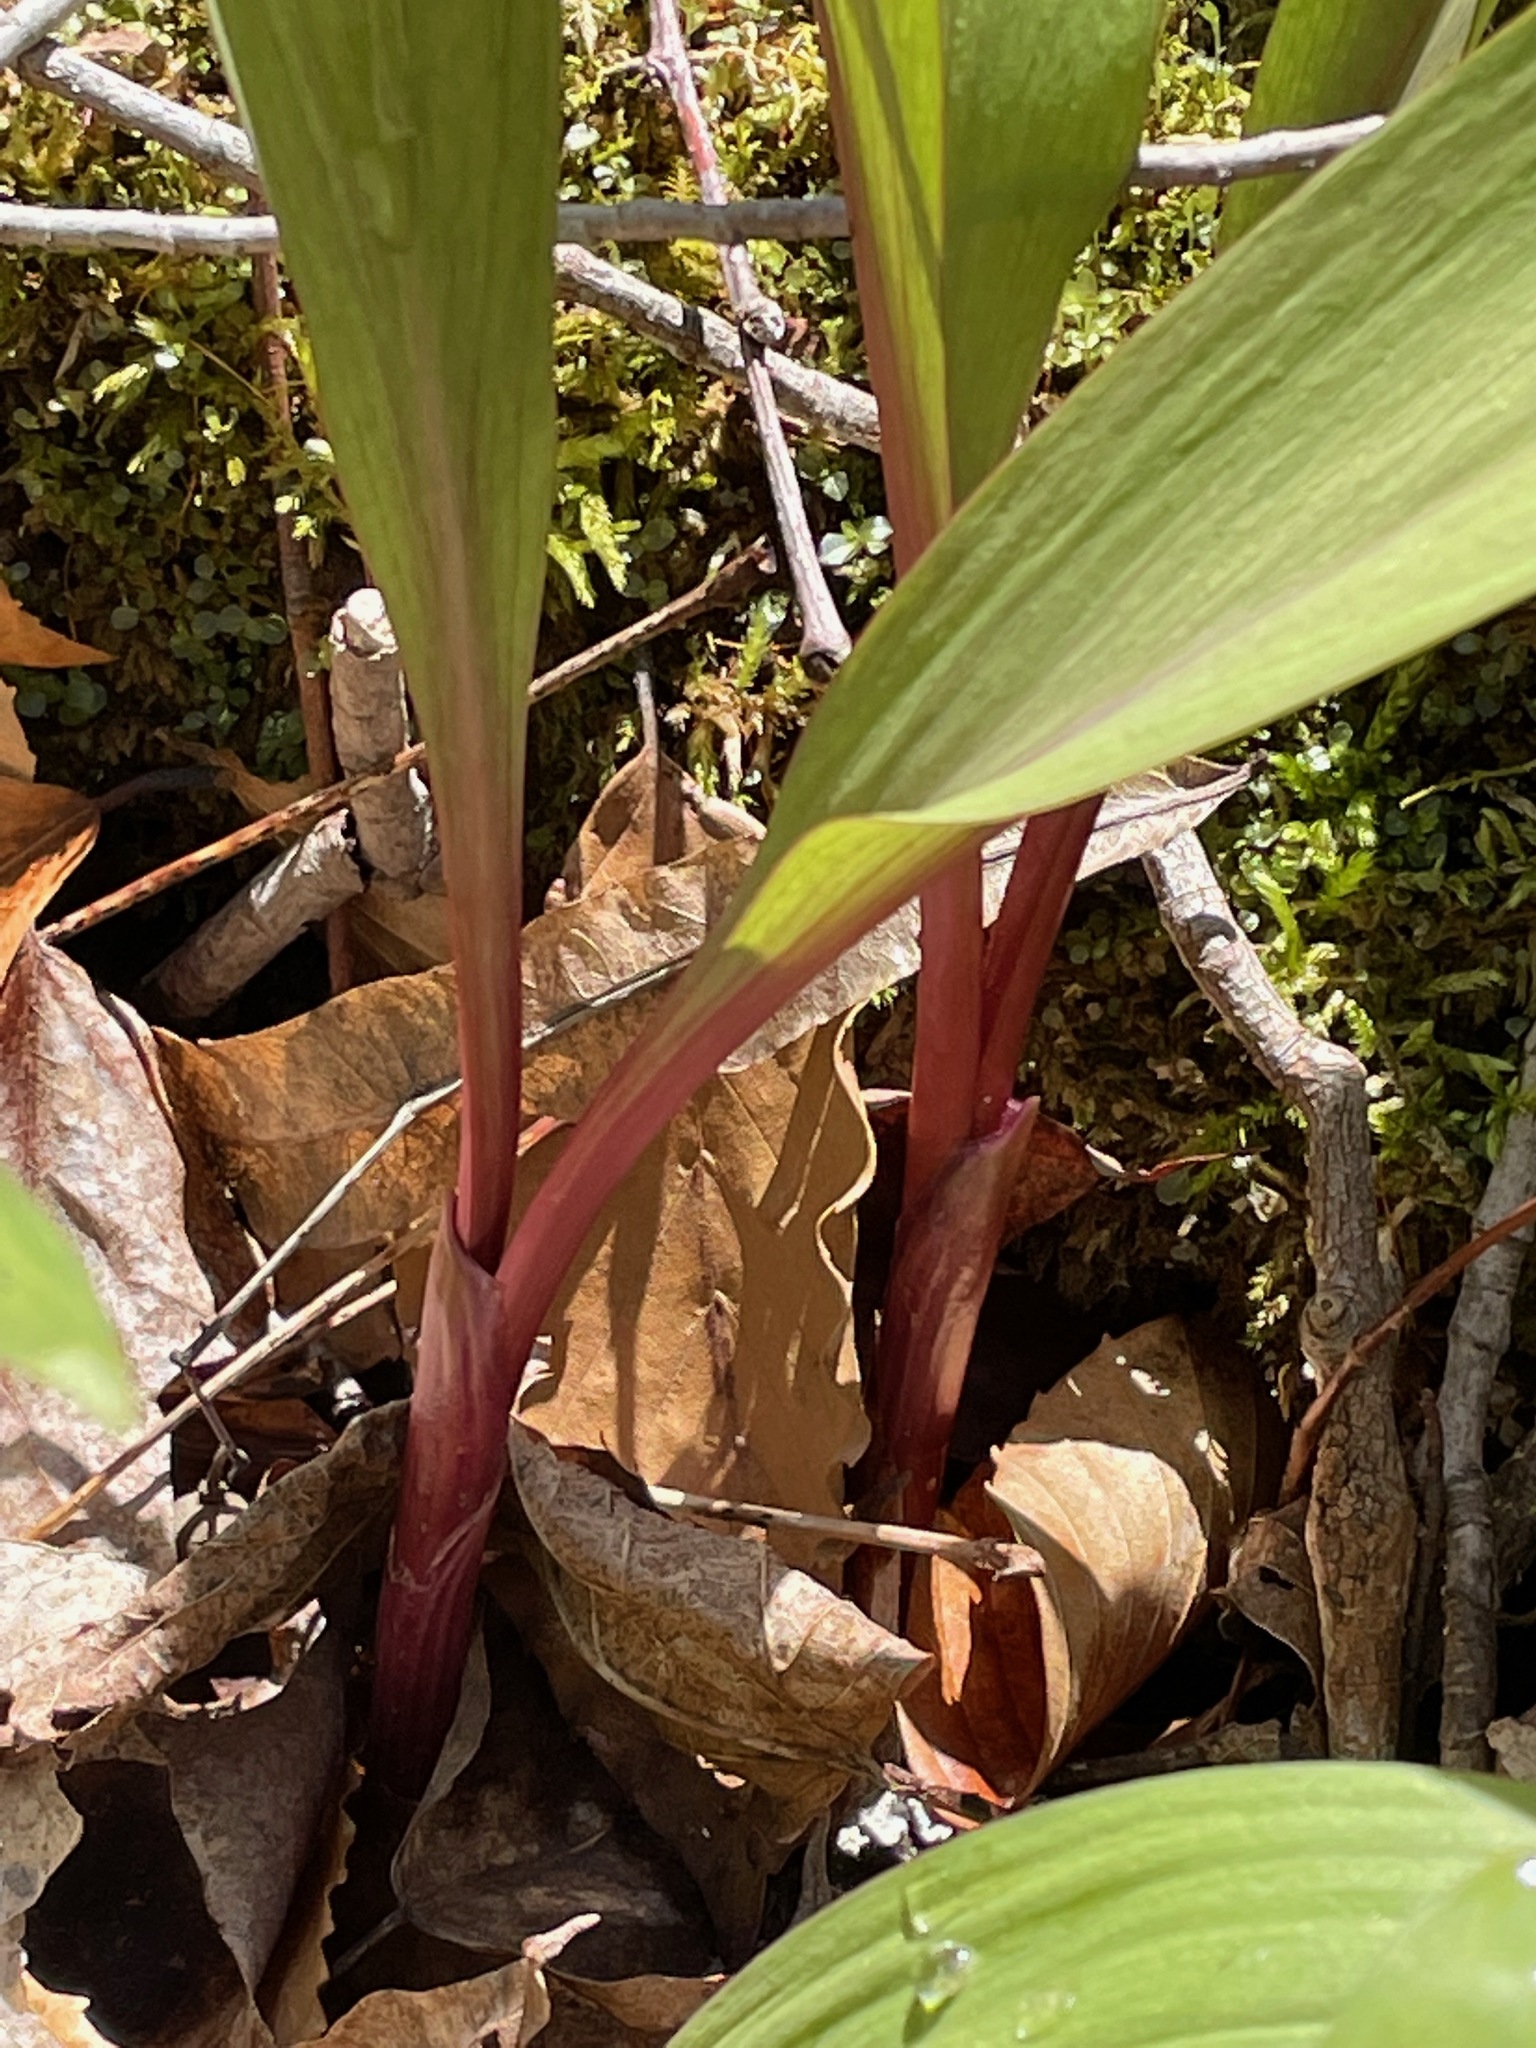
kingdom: Plantae
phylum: Tracheophyta
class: Liliopsida
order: Asparagales
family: Amaryllidaceae
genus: Allium
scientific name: Allium tricoccum
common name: Ramp
